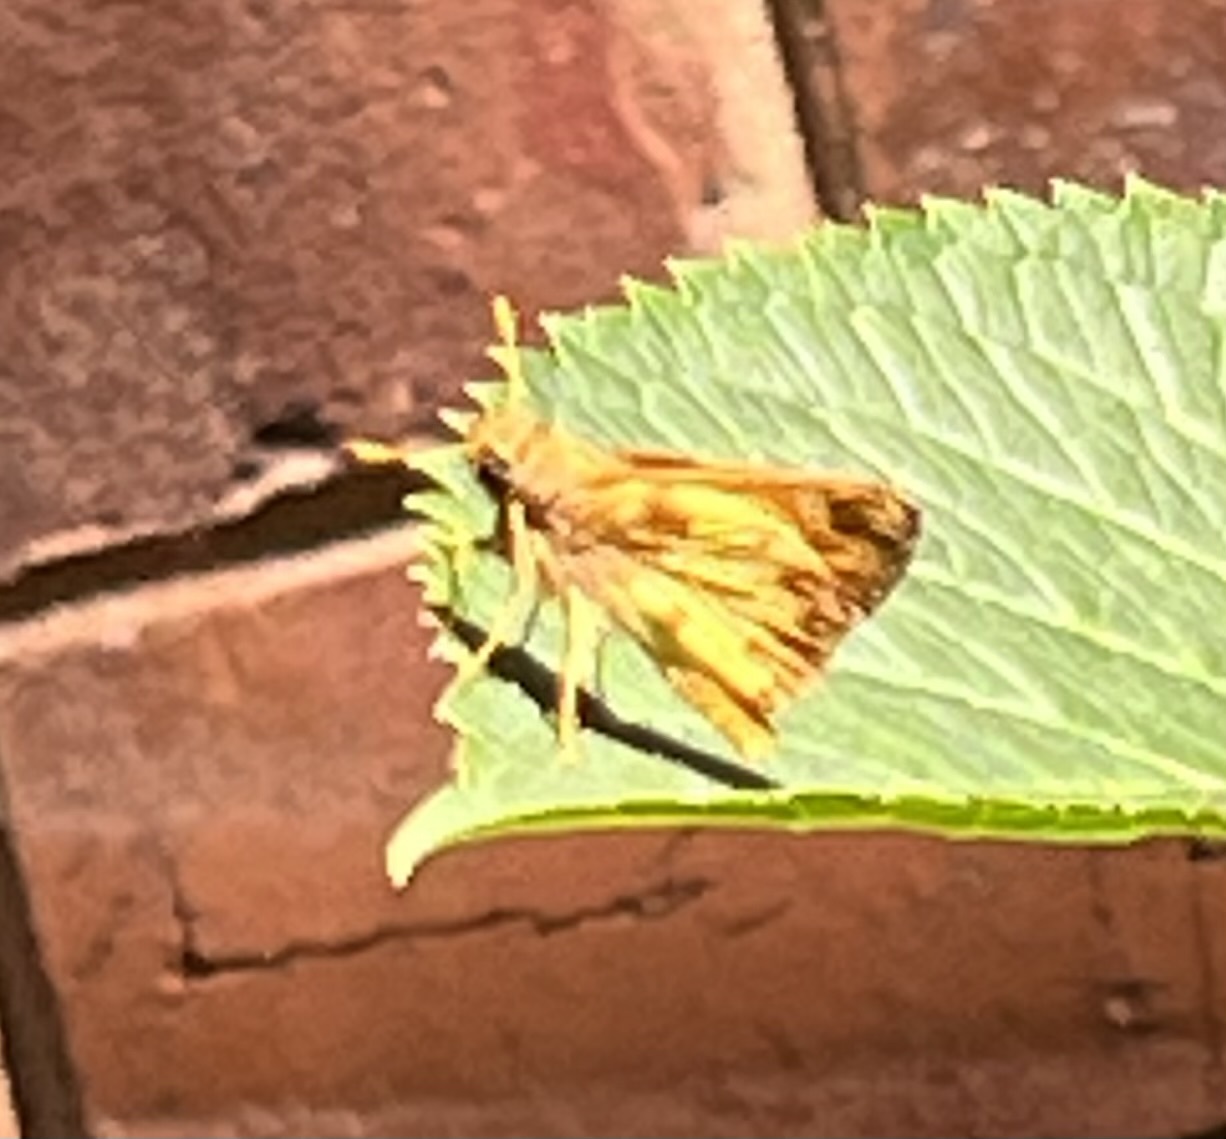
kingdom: Animalia
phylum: Arthropoda
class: Insecta
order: Lepidoptera
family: Hesperiidae
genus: Lon
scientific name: Lon zabulon
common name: Zabulon skipper
